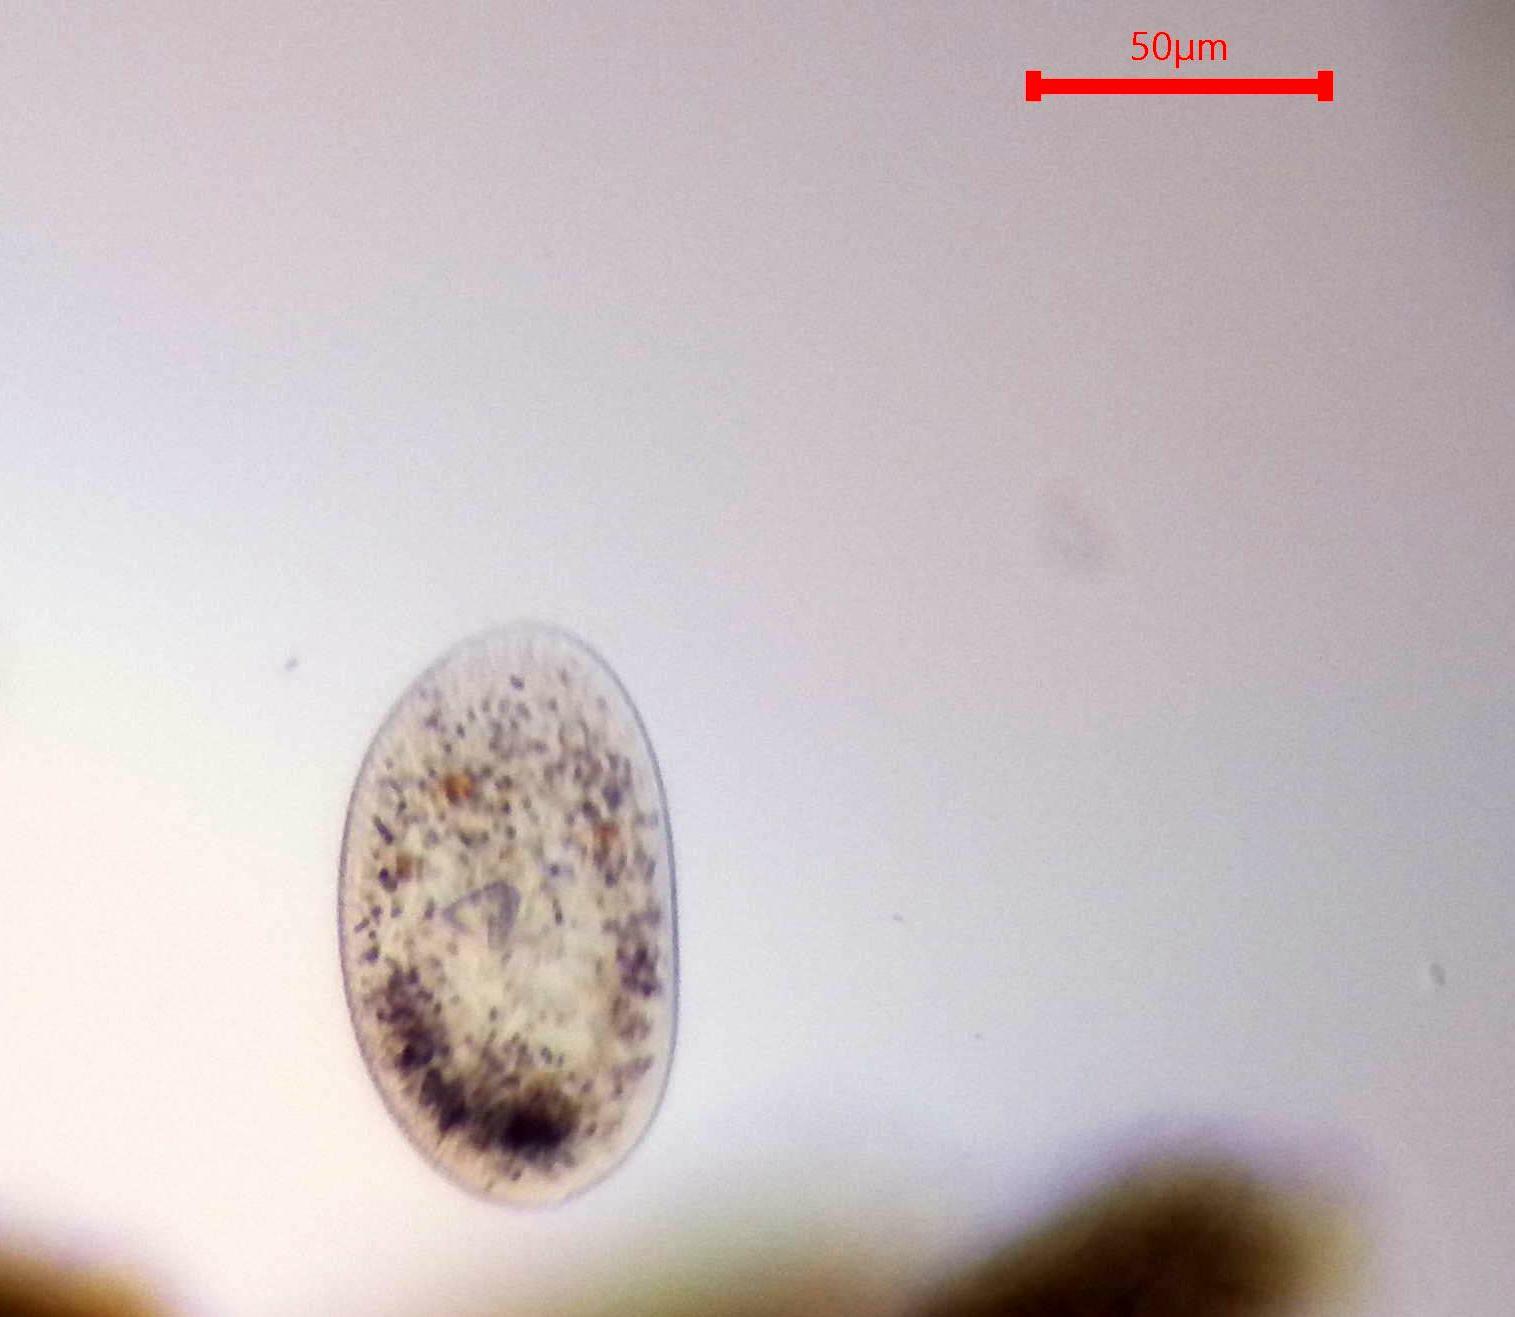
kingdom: Chromista
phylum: Ciliophora
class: Oligohymenophorea
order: Hymenostomatida
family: Frontoniidae
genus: Frontonia
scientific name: Frontonia acuminata
